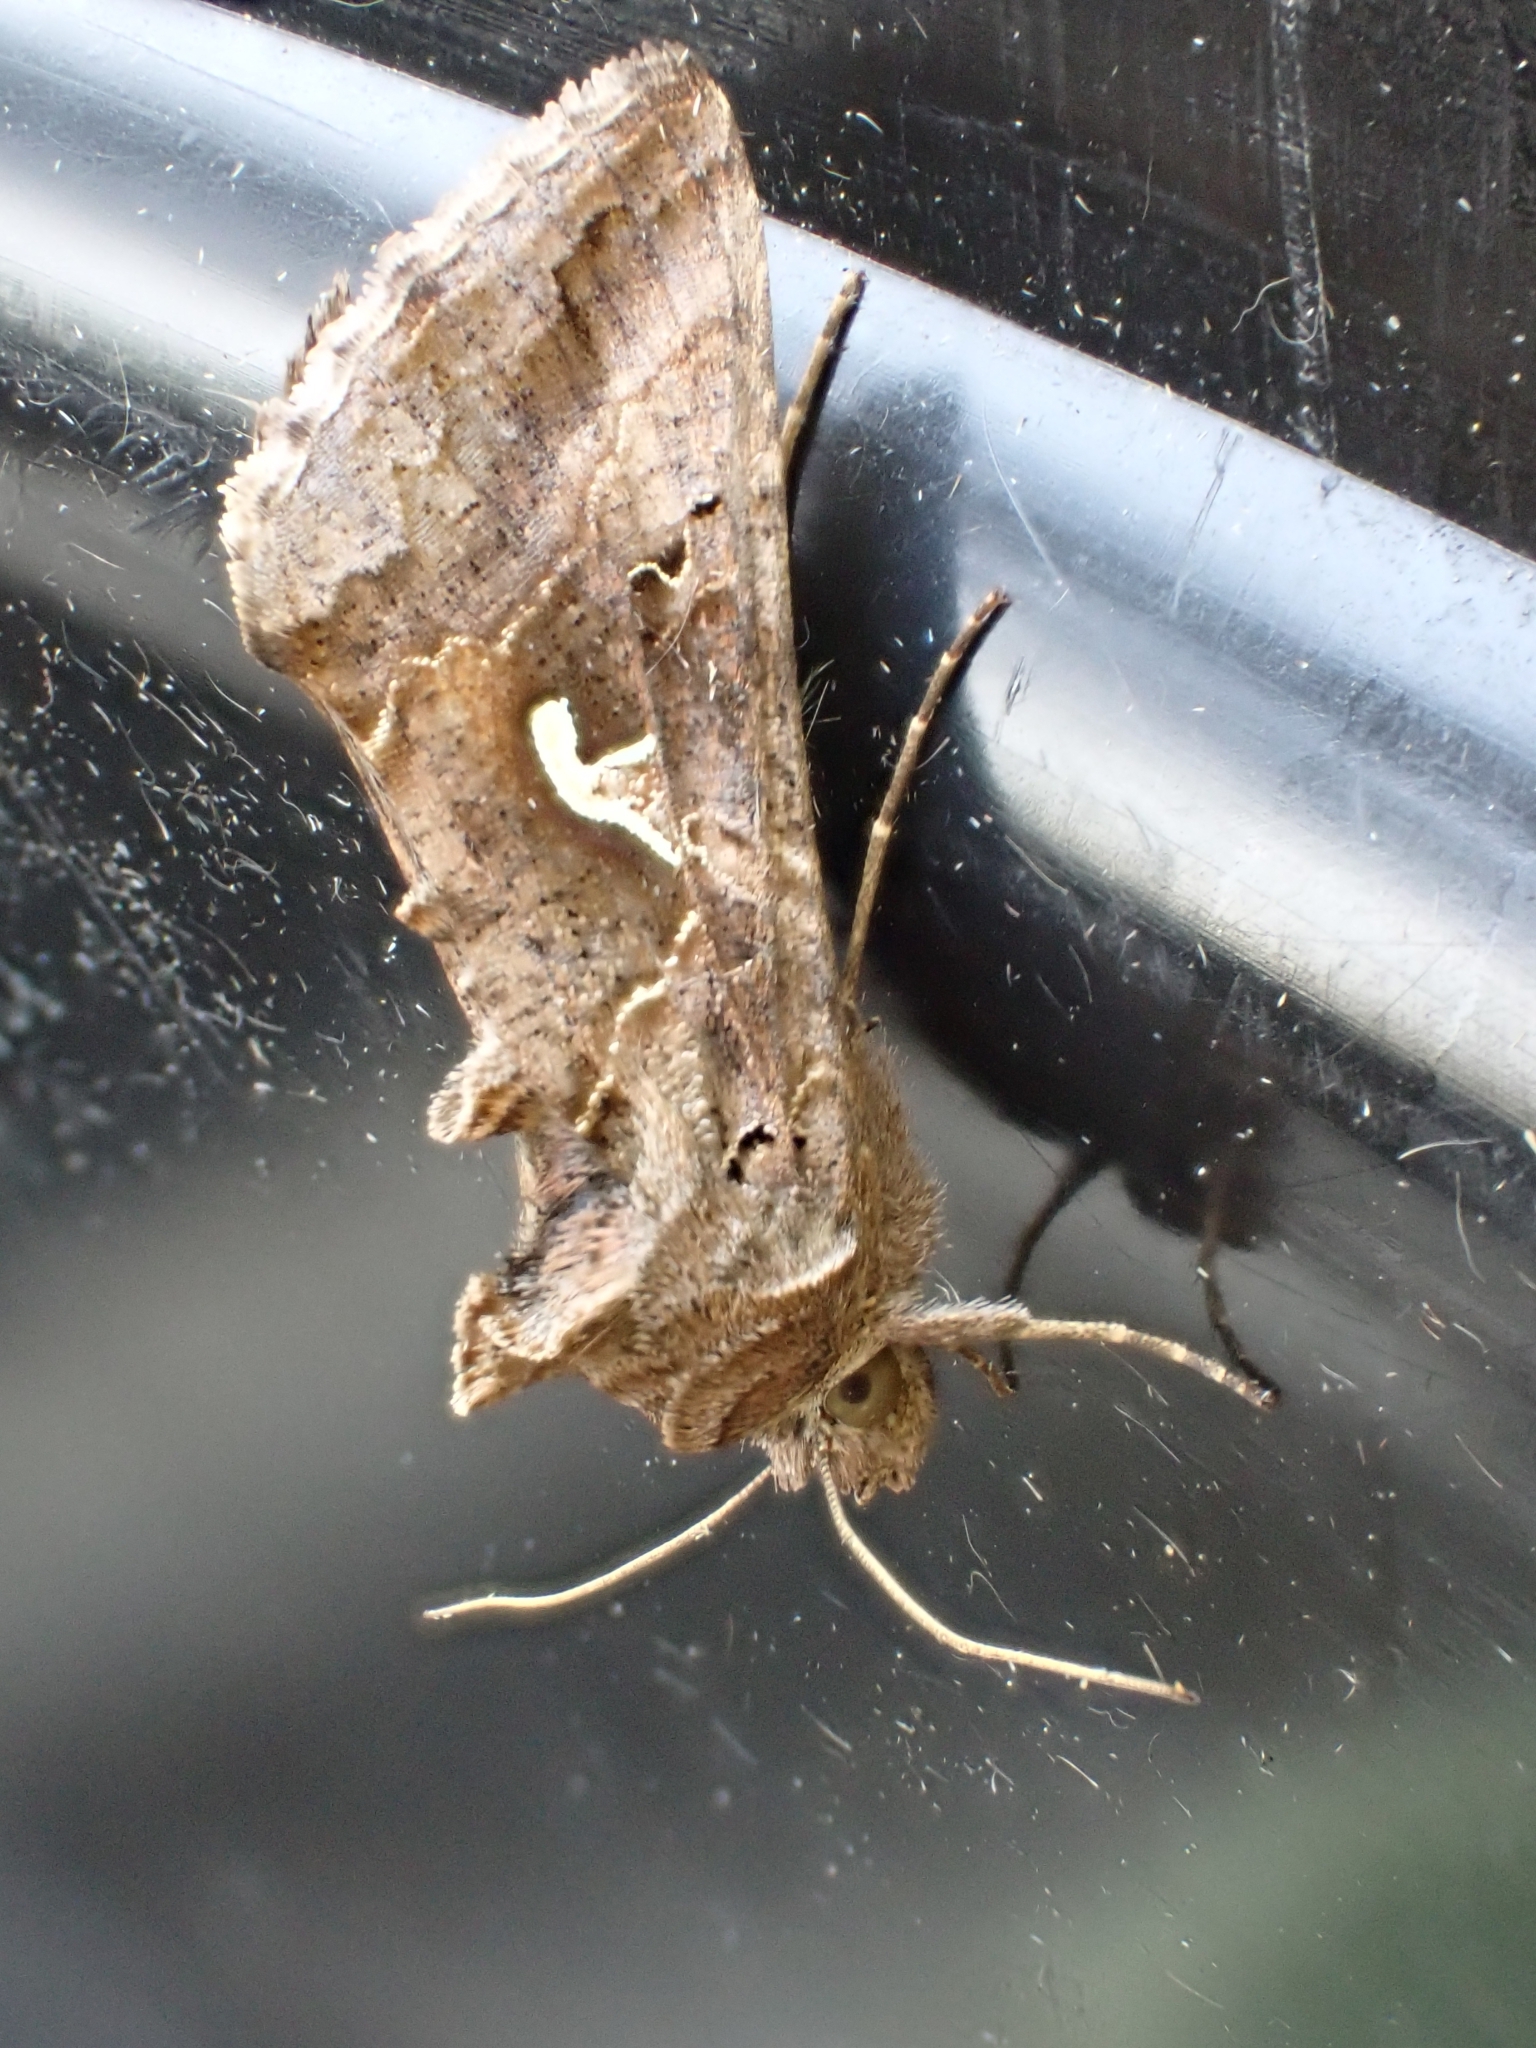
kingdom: Animalia
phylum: Arthropoda
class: Insecta
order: Lepidoptera
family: Noctuidae
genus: Autographa
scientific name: Autographa gamma
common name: Silver y
